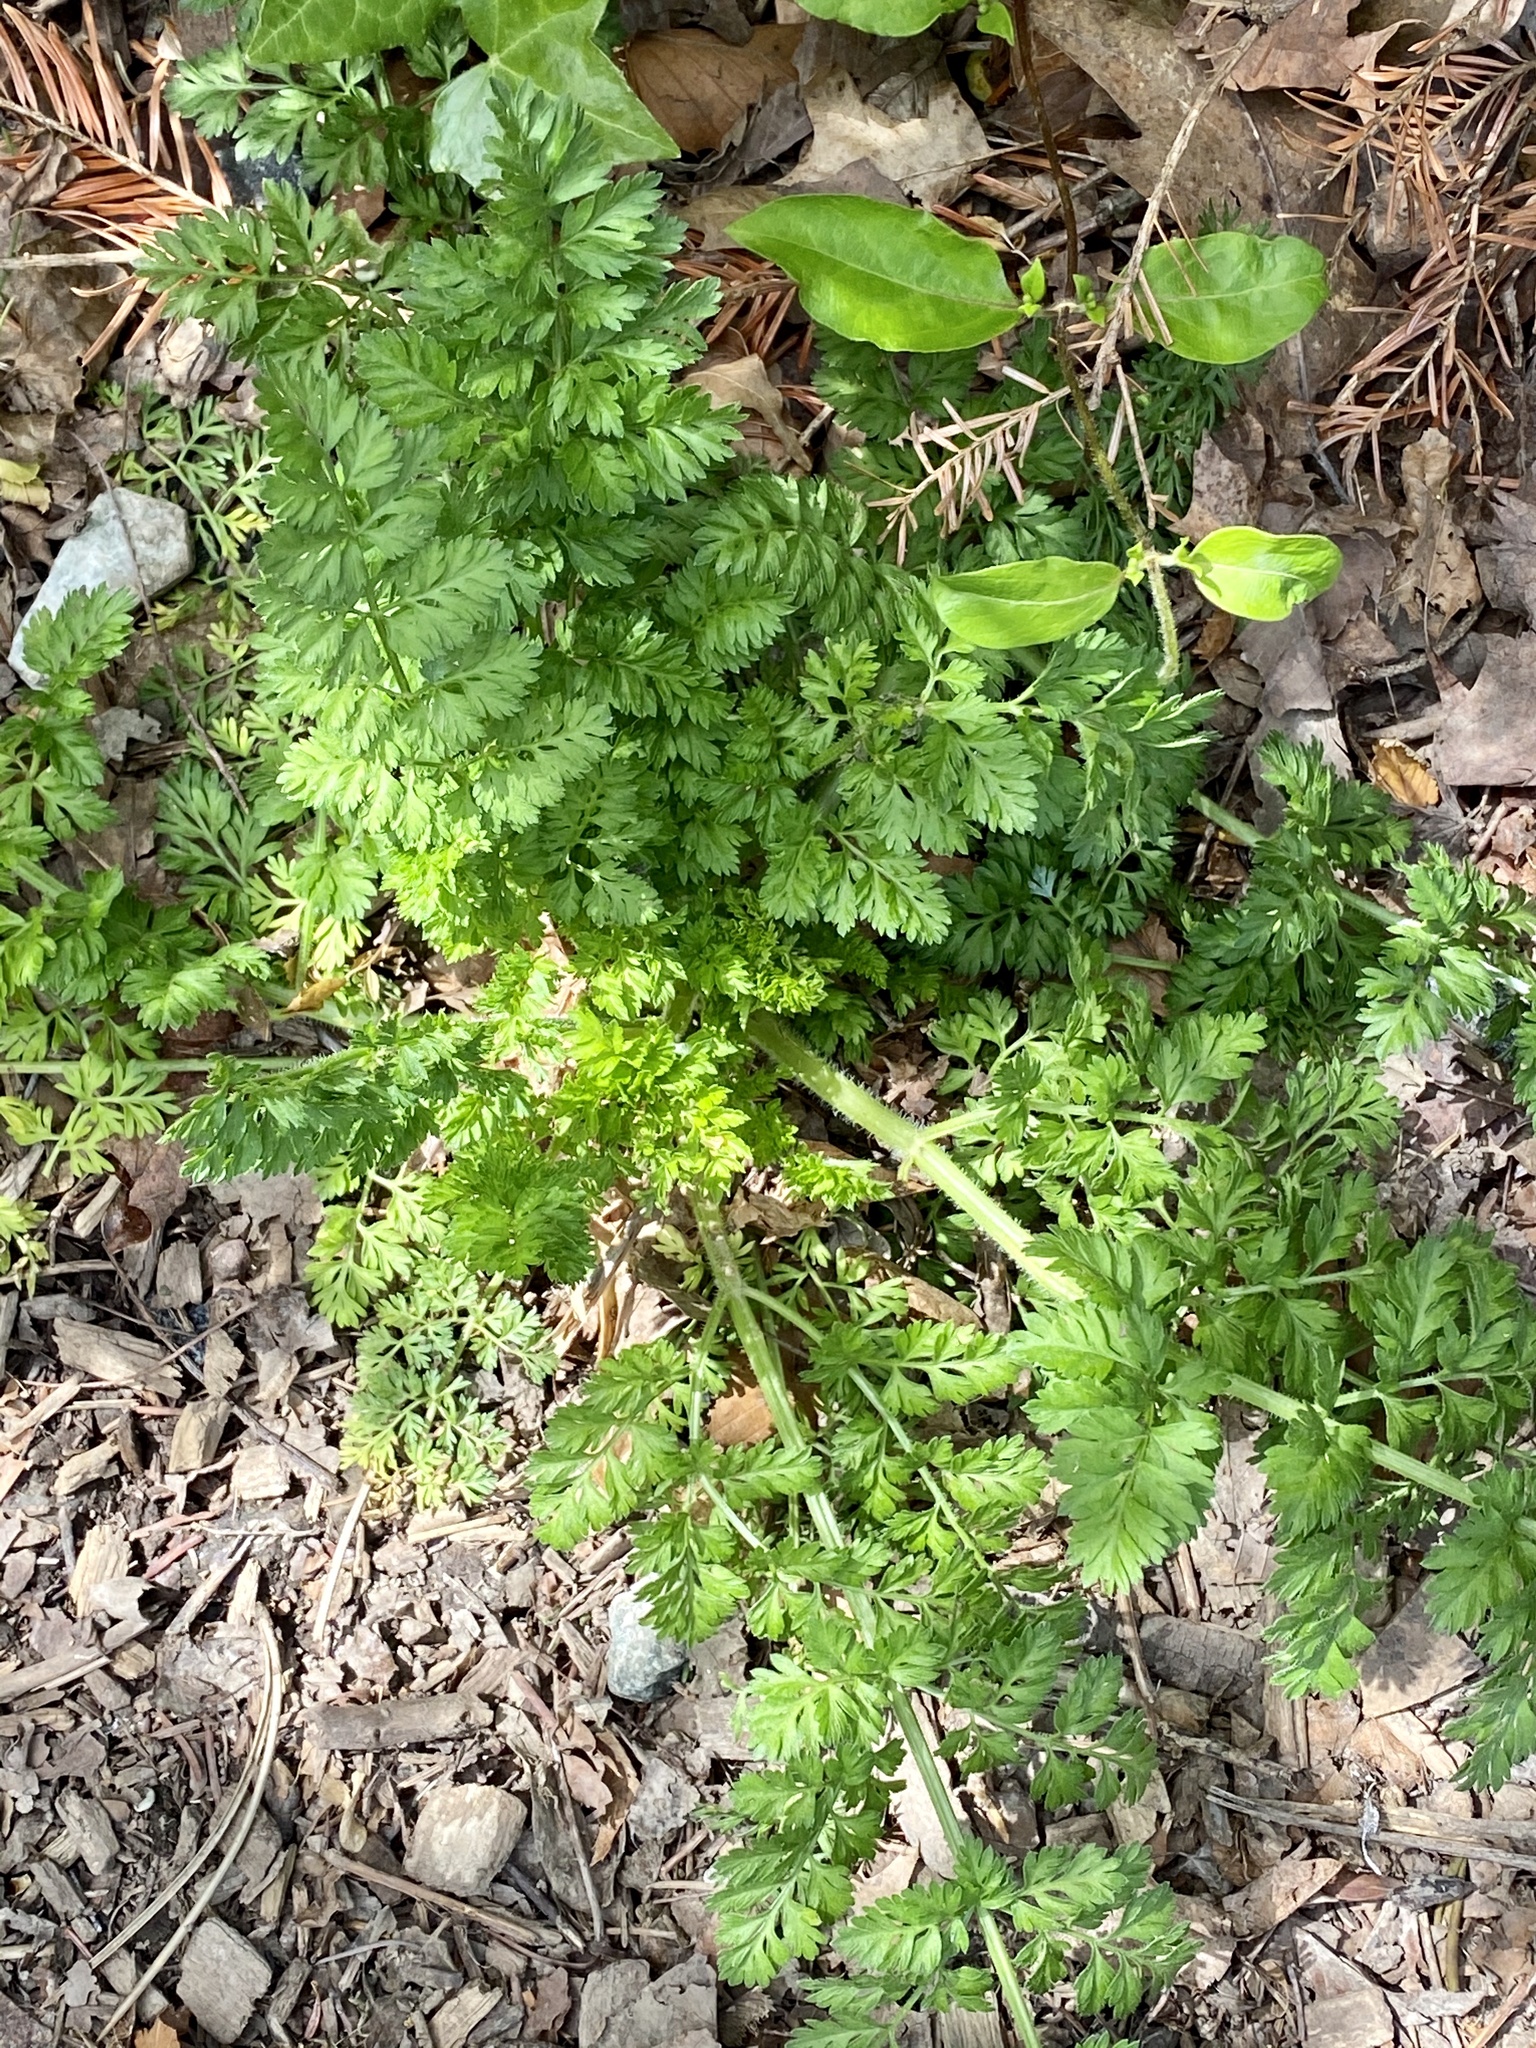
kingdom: Plantae
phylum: Tracheophyta
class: Magnoliopsida
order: Apiales
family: Apiaceae
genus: Daucus
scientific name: Daucus carota
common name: Wild carrot
